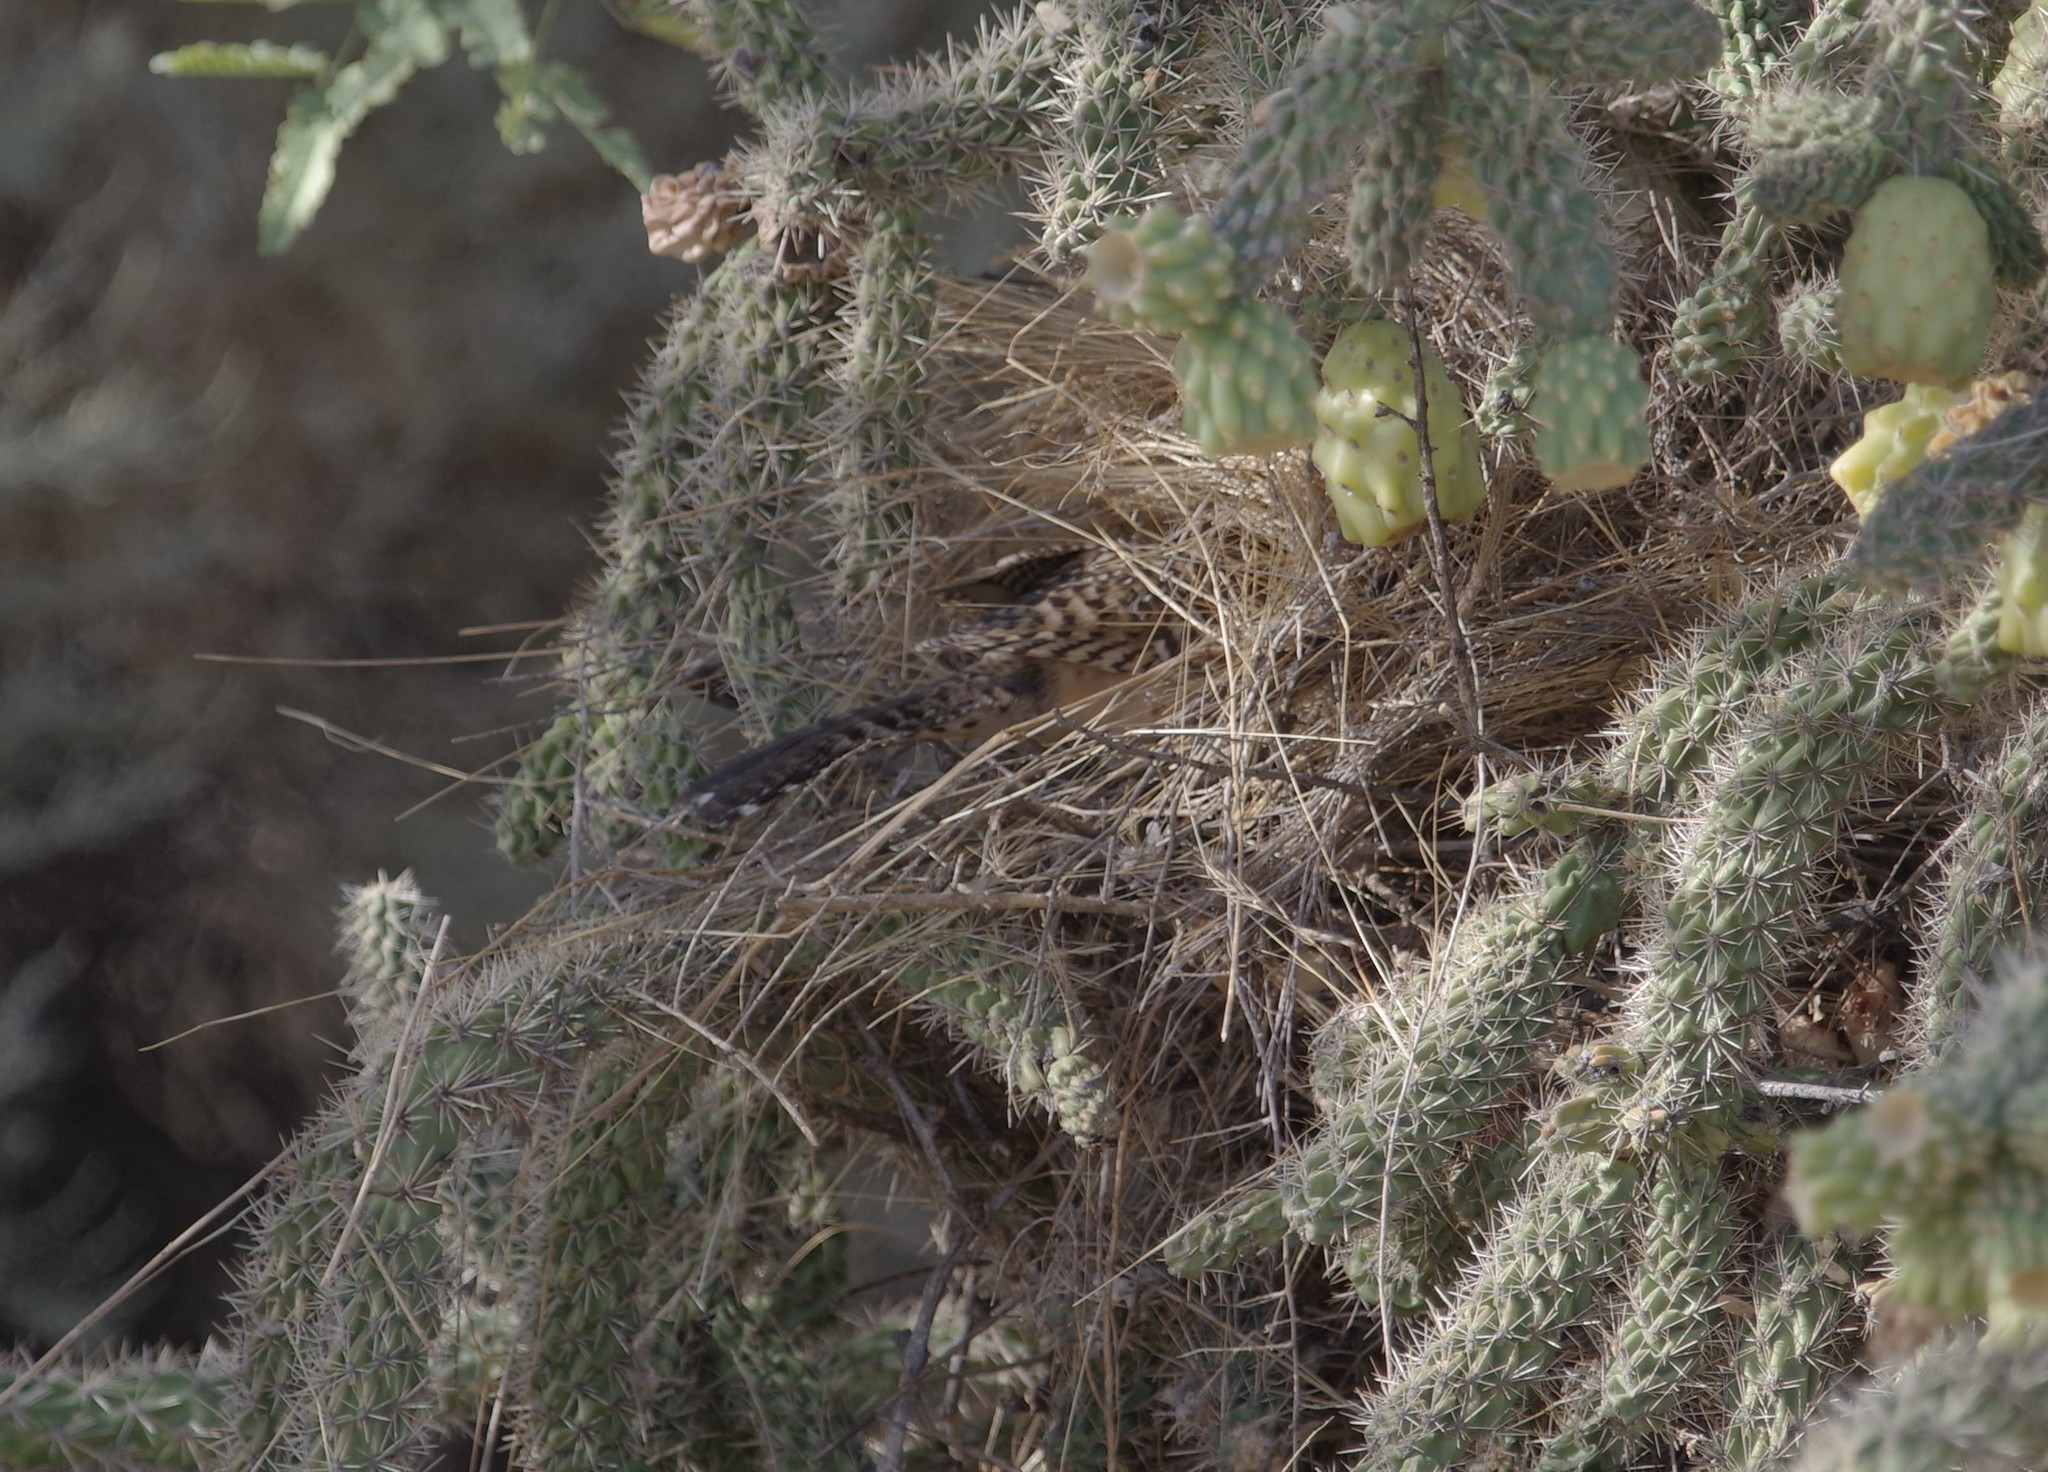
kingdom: Animalia
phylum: Chordata
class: Aves
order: Passeriformes
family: Troglodytidae
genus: Campylorhynchus
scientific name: Campylorhynchus brunneicapillus
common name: Cactus wren
